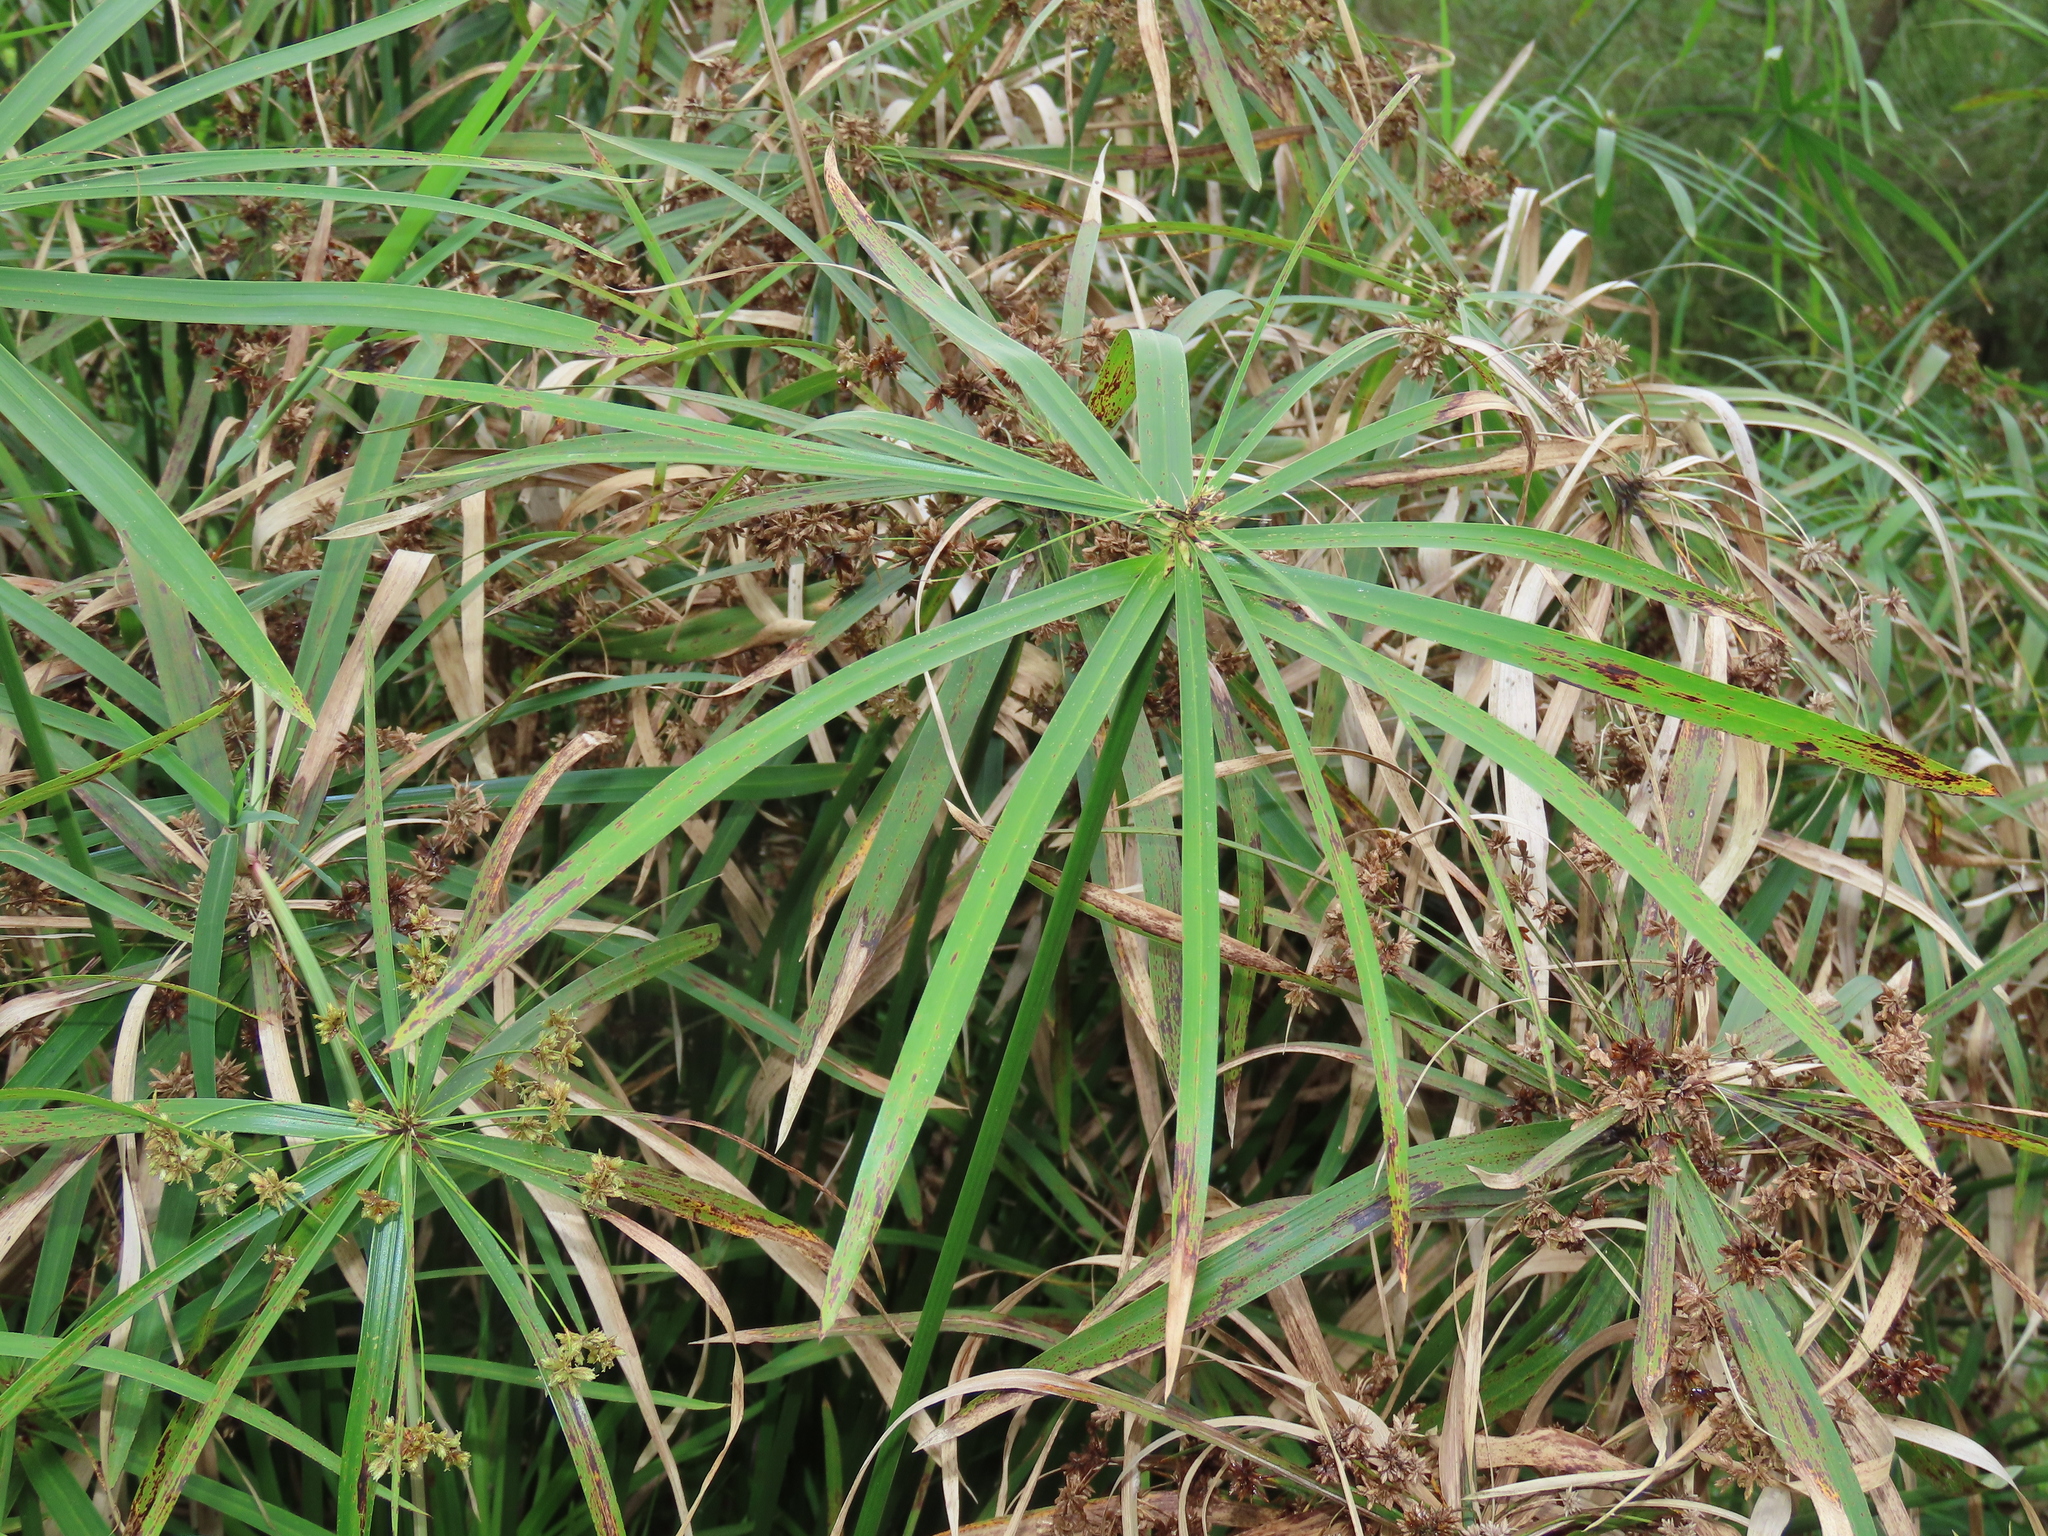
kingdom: Plantae
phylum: Tracheophyta
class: Liliopsida
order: Poales
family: Cyperaceae
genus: Cyperus
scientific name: Cyperus alternifolius
